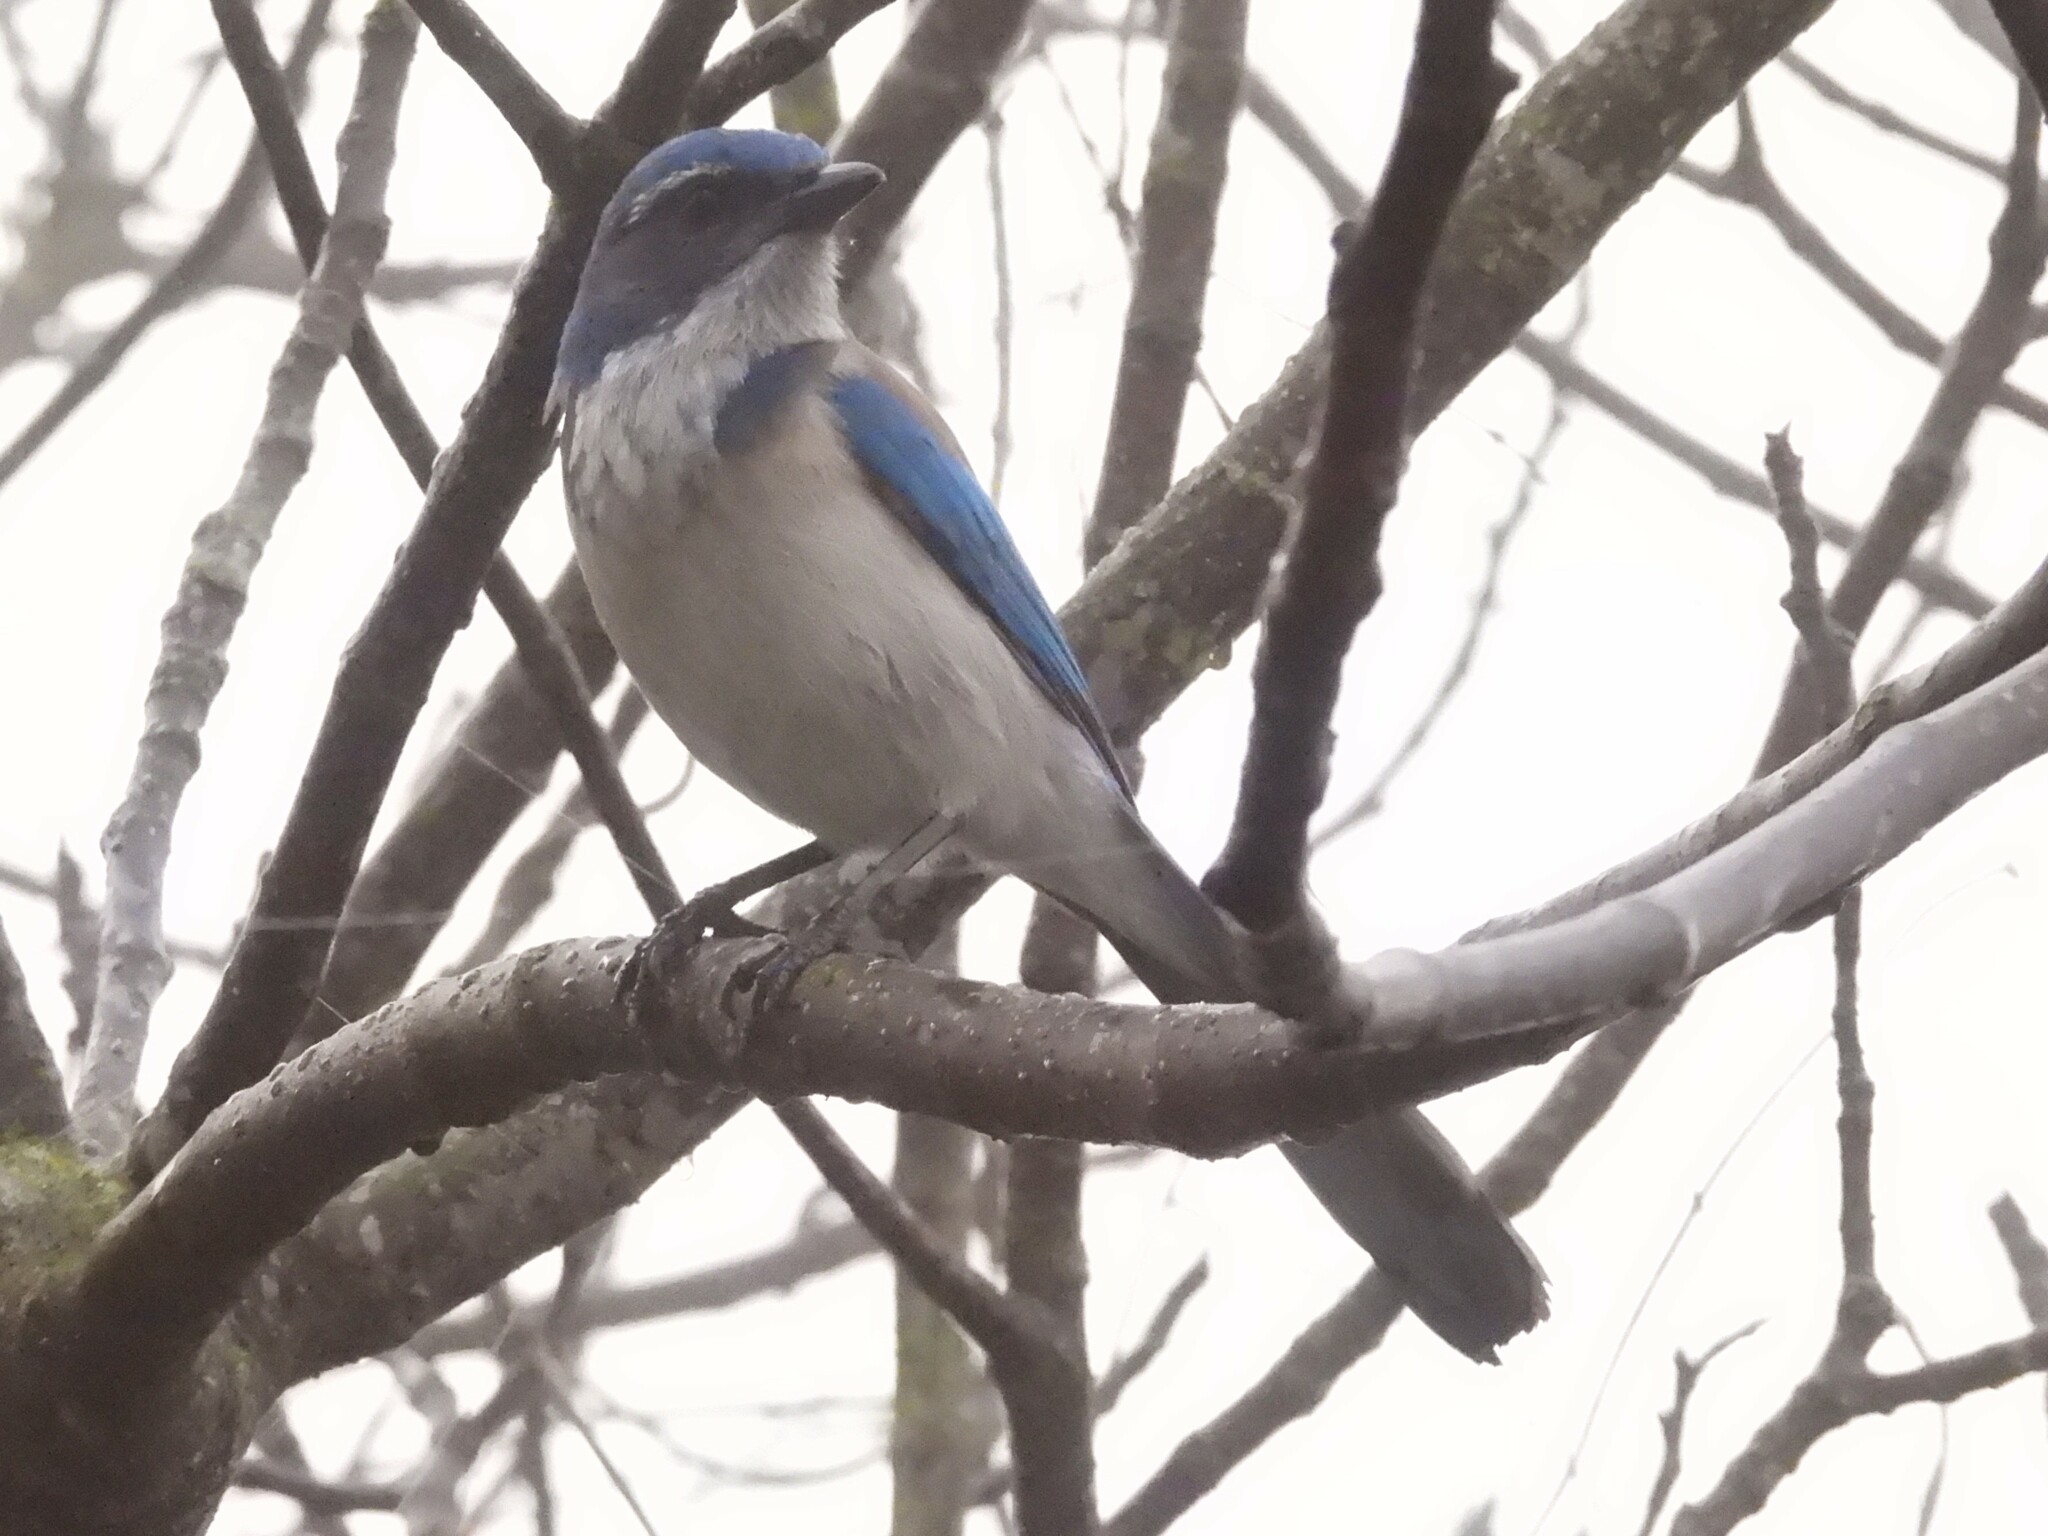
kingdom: Animalia
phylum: Chordata
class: Aves
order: Passeriformes
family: Corvidae
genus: Aphelocoma
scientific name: Aphelocoma californica
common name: California scrub-jay
